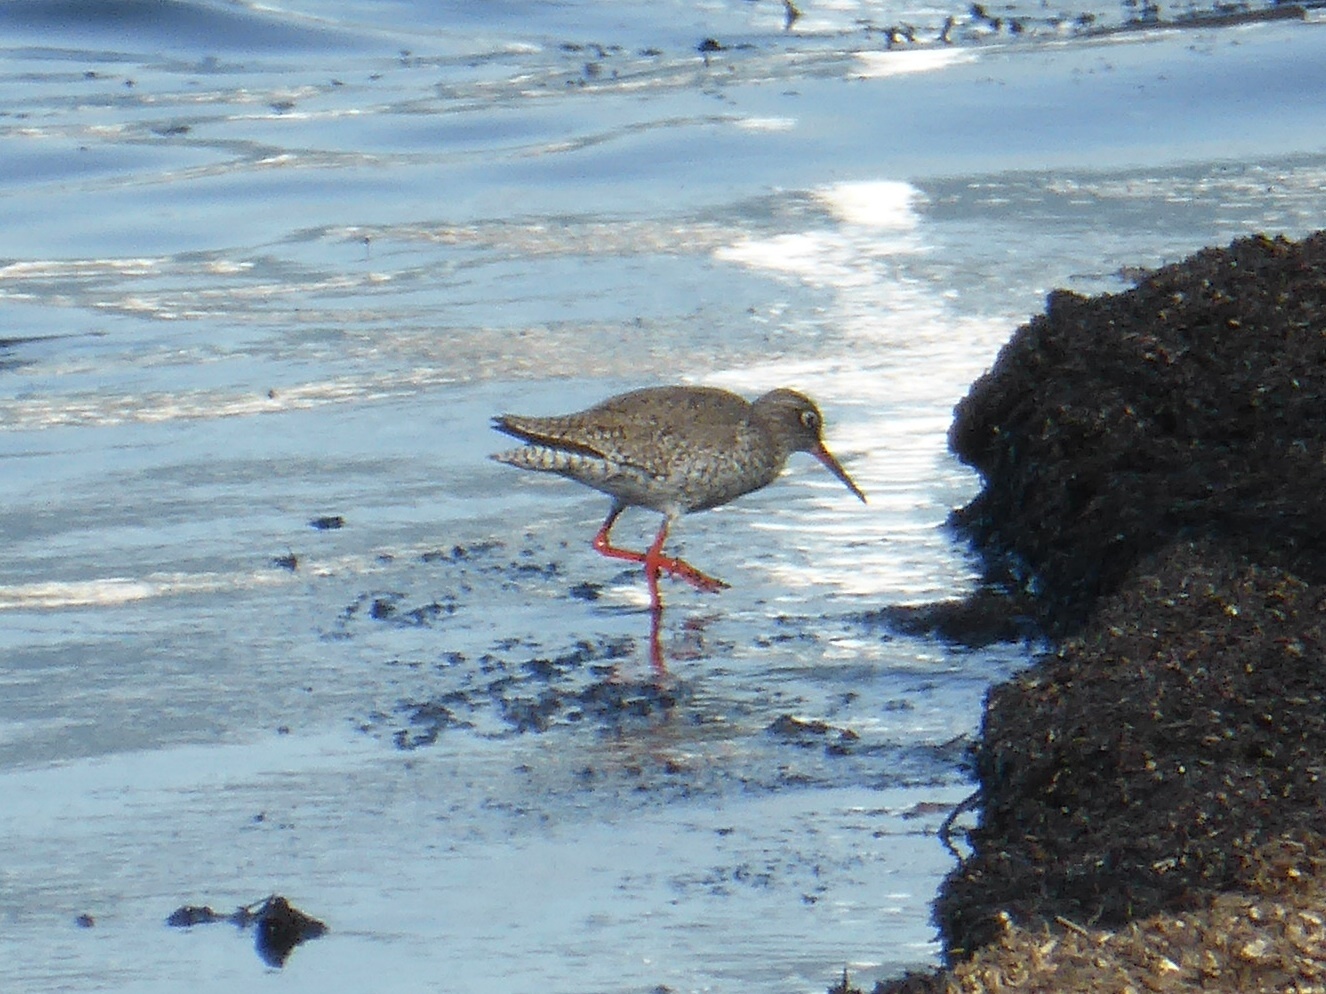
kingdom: Animalia
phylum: Chordata
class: Aves
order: Charadriiformes
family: Scolopacidae
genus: Tringa
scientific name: Tringa totanus
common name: Common redshank
